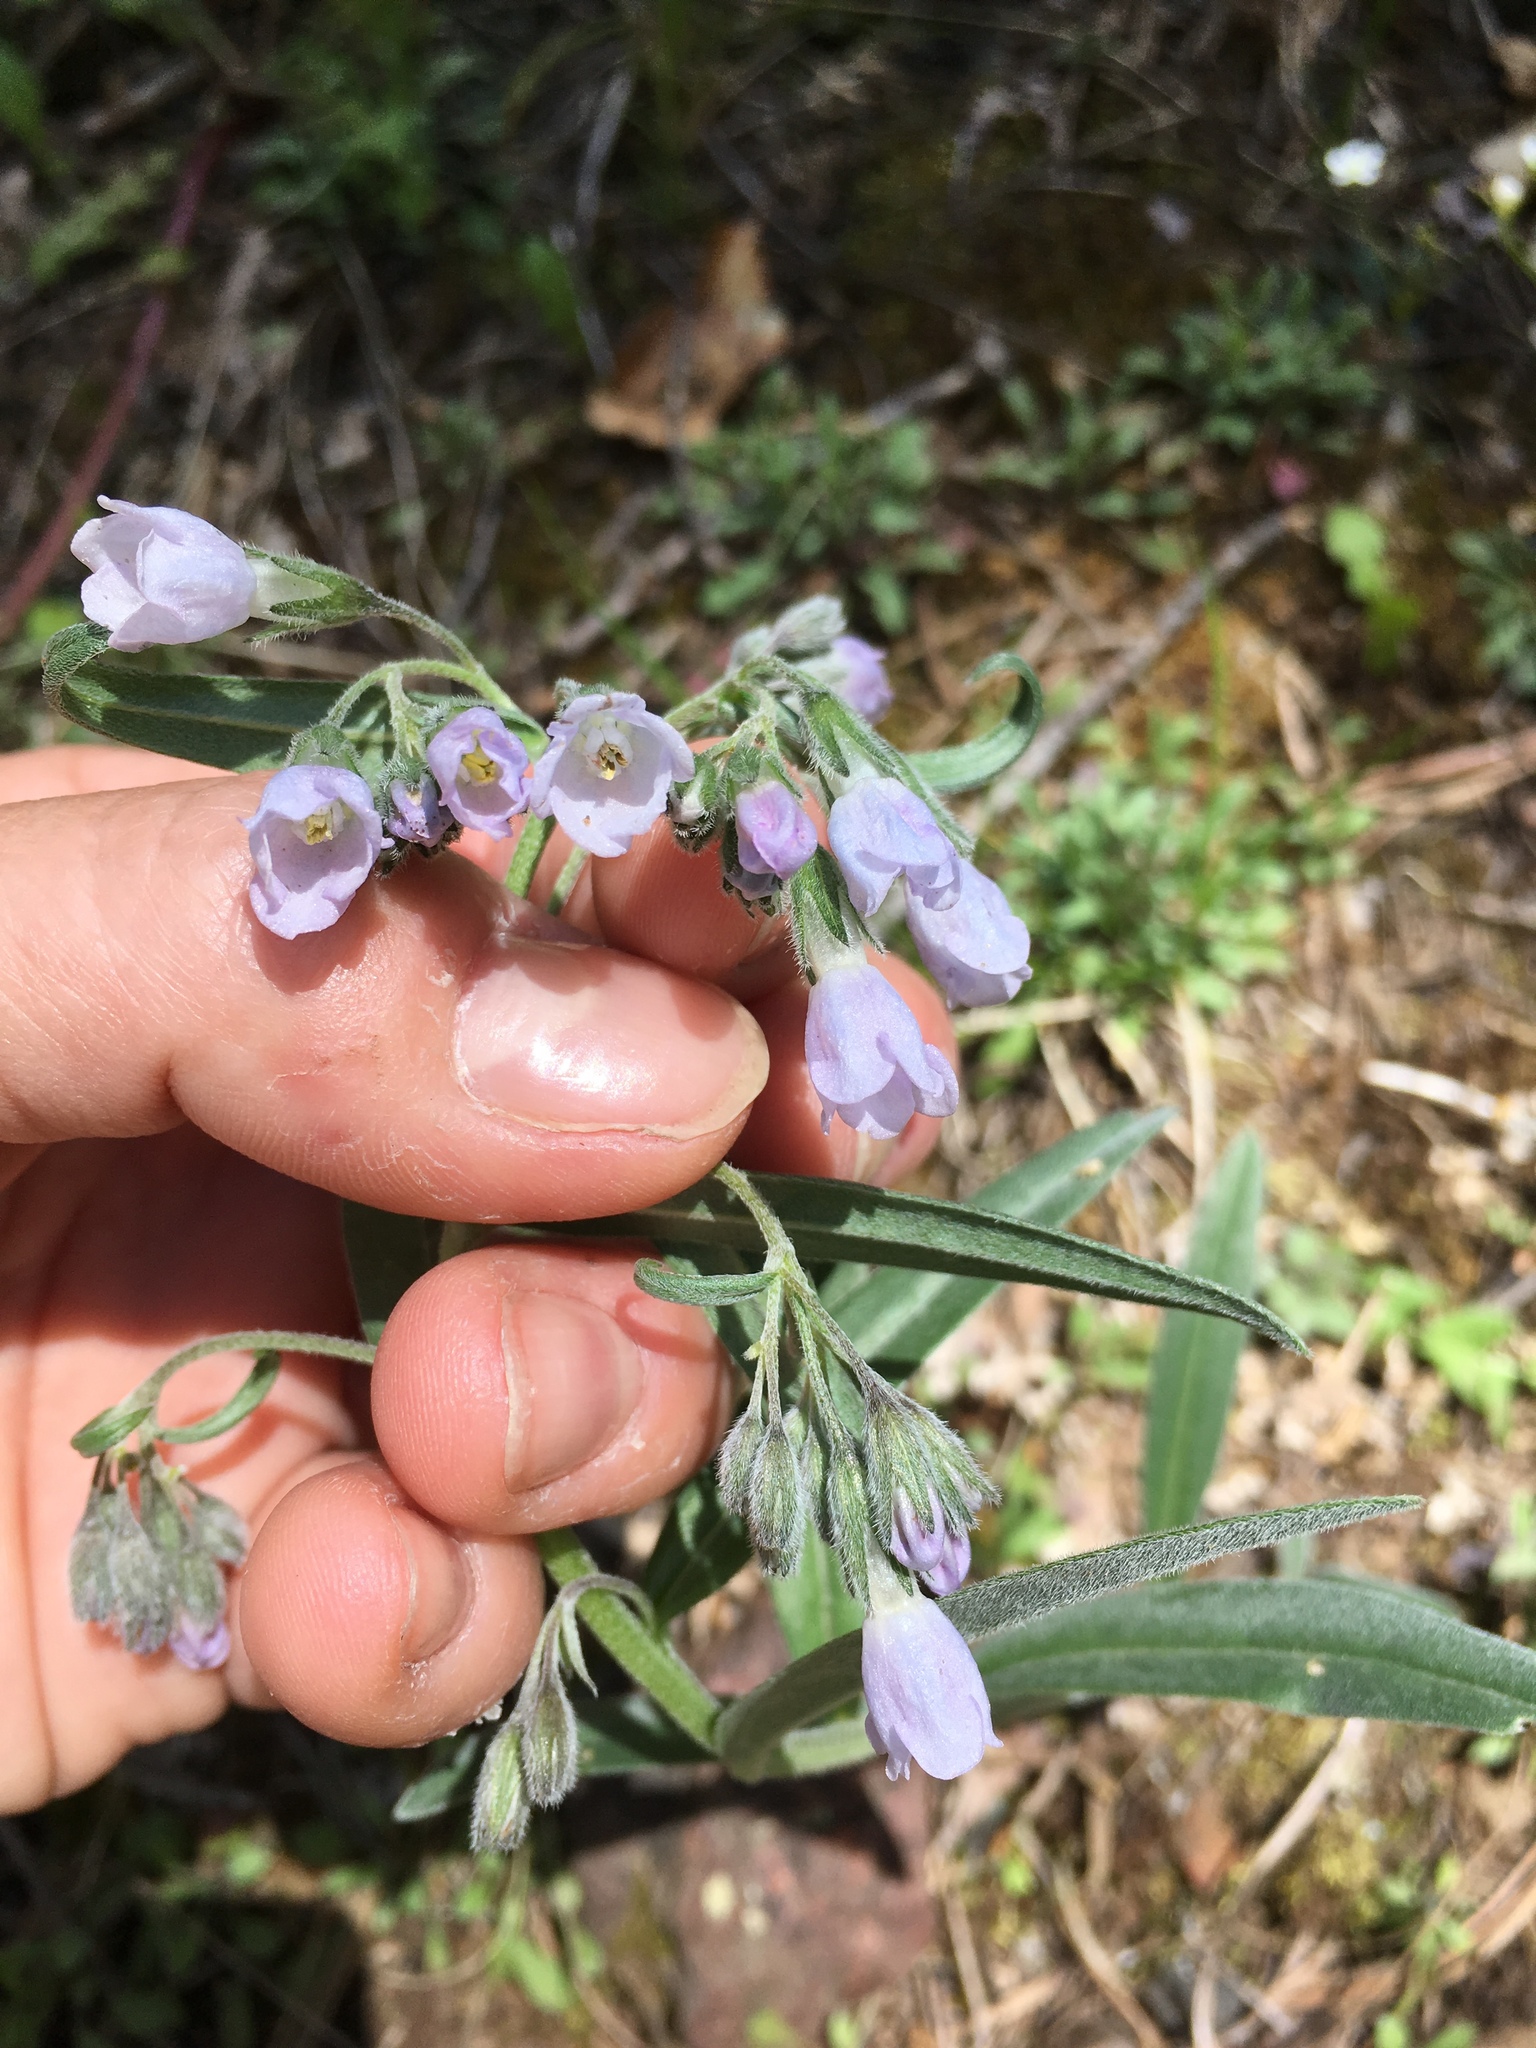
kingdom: Plantae
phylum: Tracheophyta
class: Magnoliopsida
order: Boraginales
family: Boraginaceae
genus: Mertensia
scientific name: Mertensia fendleri
